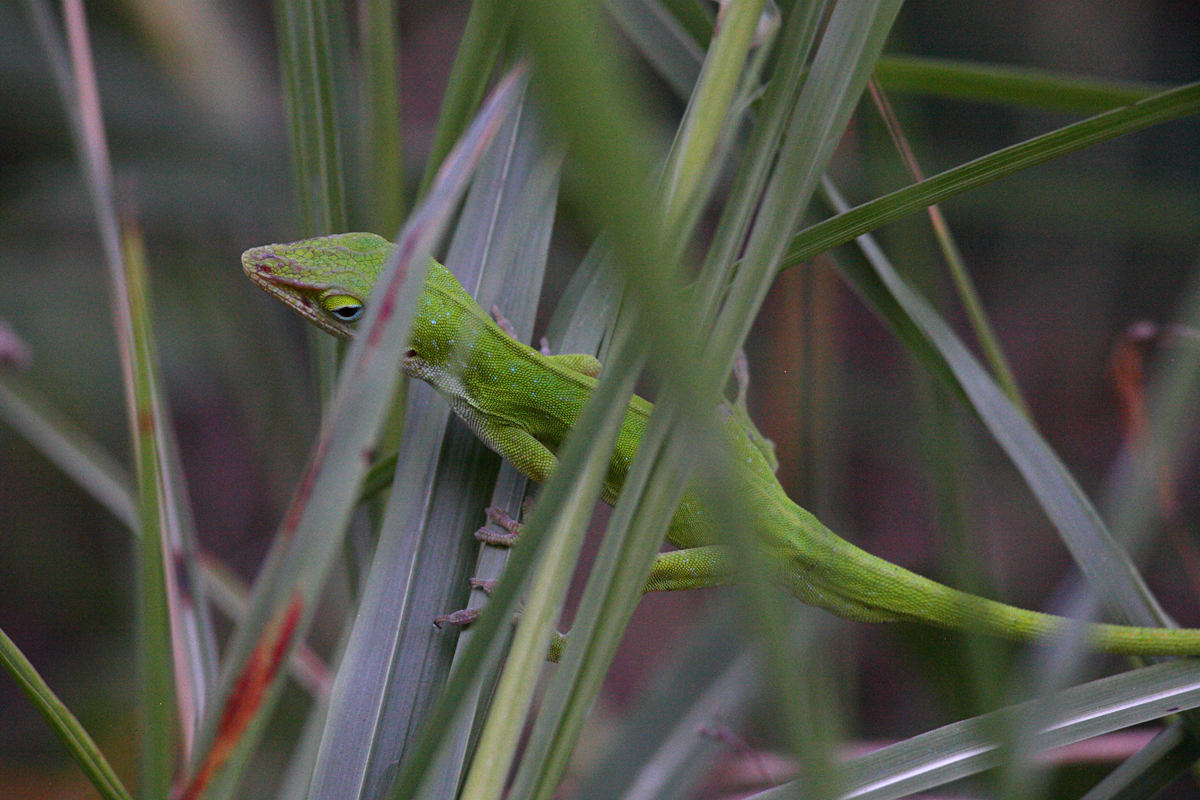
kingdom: Animalia
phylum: Chordata
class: Squamata
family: Dactyloidae
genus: Anolis
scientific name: Anolis carolinensis
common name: Green anole
